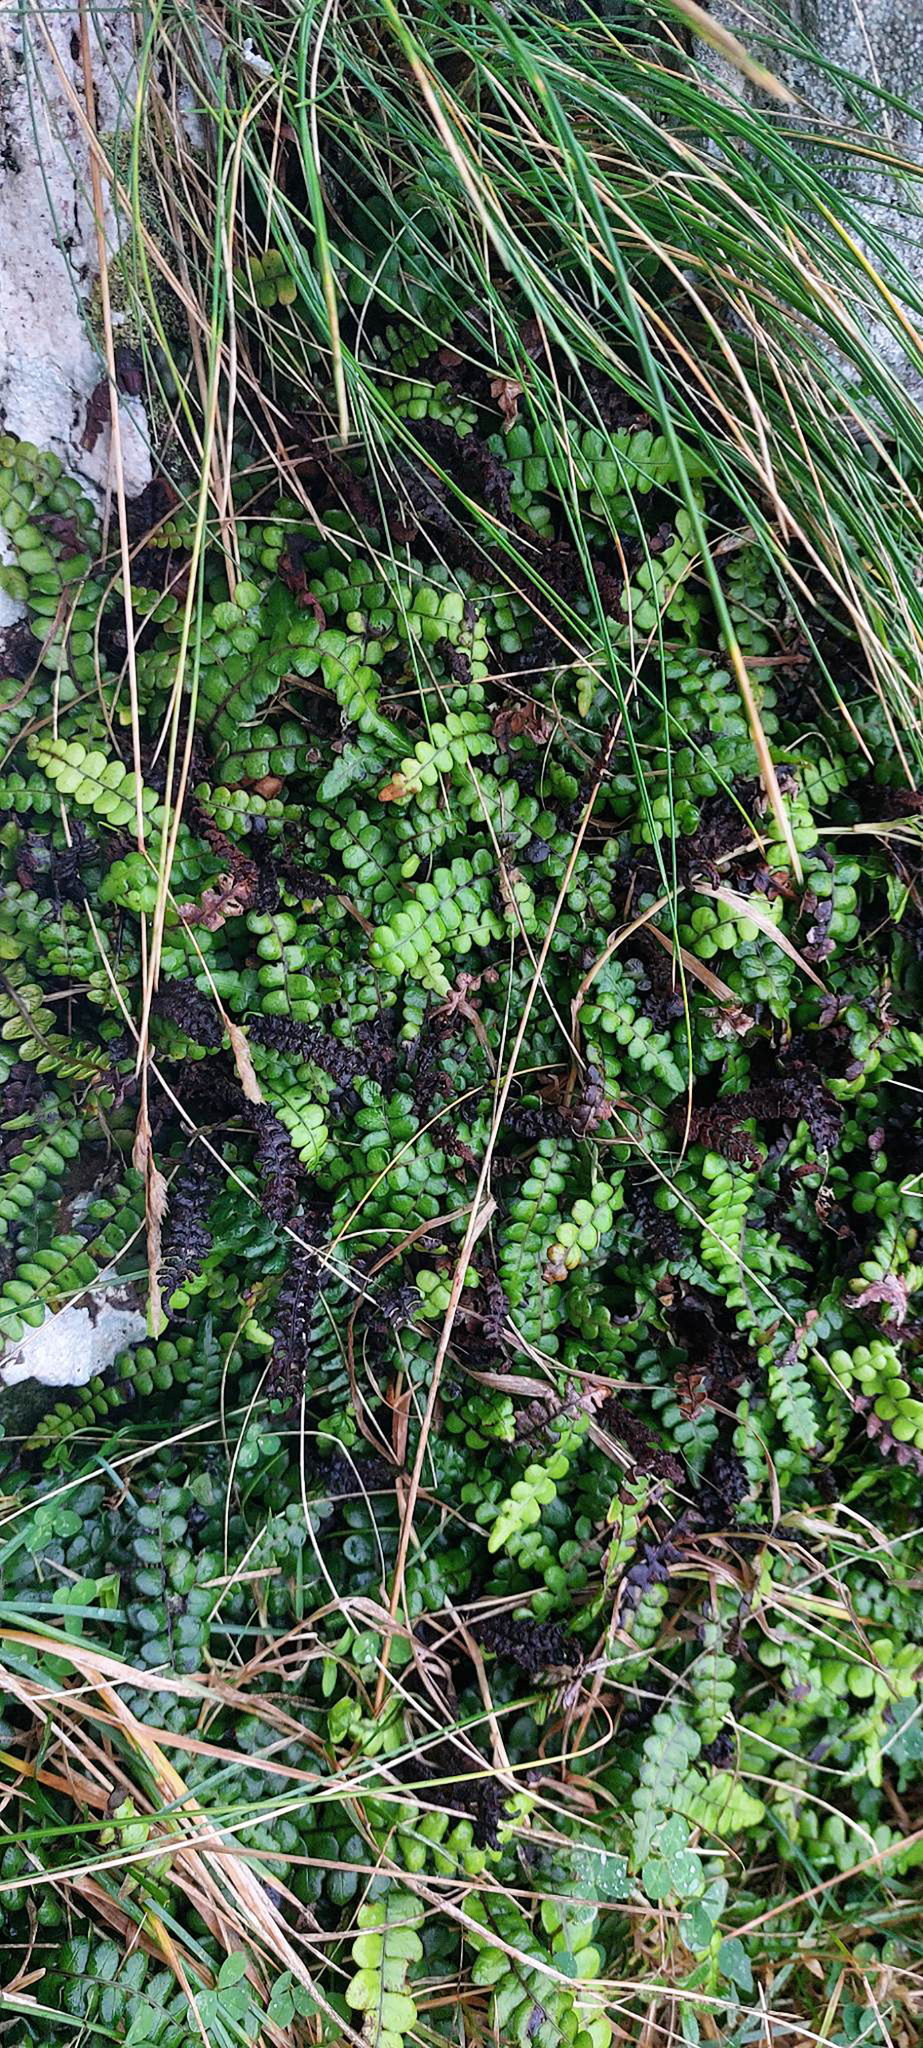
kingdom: Plantae
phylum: Tracheophyta
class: Polypodiopsida
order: Polypodiales
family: Blechnaceae
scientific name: Blechnaceae
